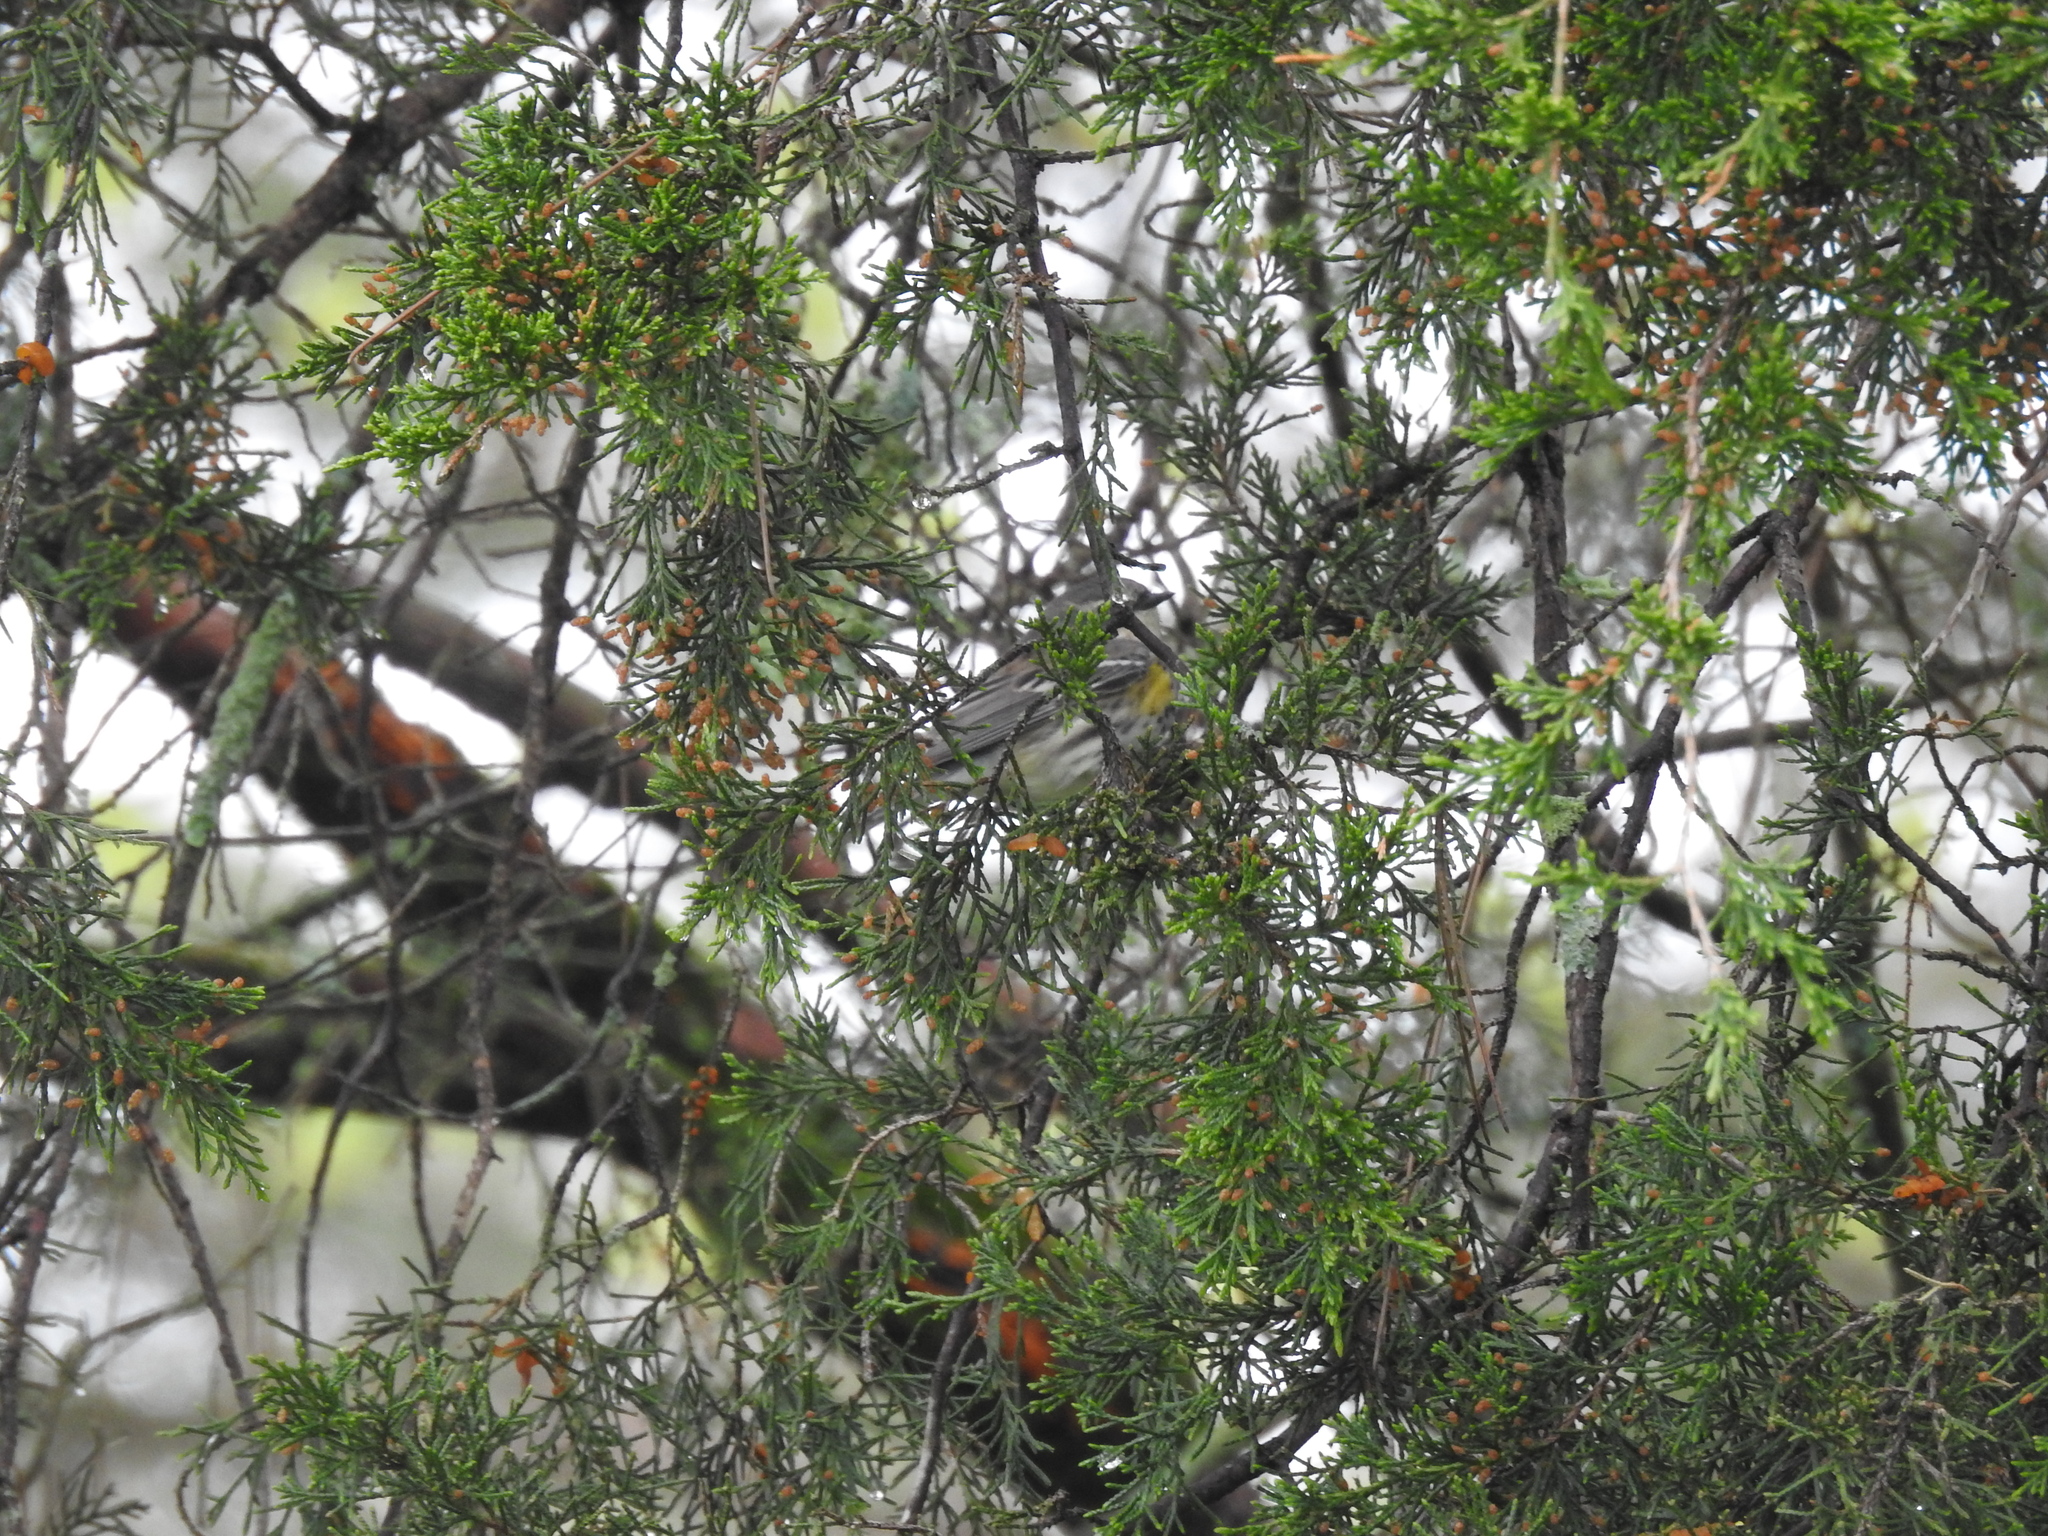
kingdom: Animalia
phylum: Chordata
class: Aves
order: Passeriformes
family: Parulidae
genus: Setophaga
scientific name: Setophaga coronata
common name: Myrtle warbler
